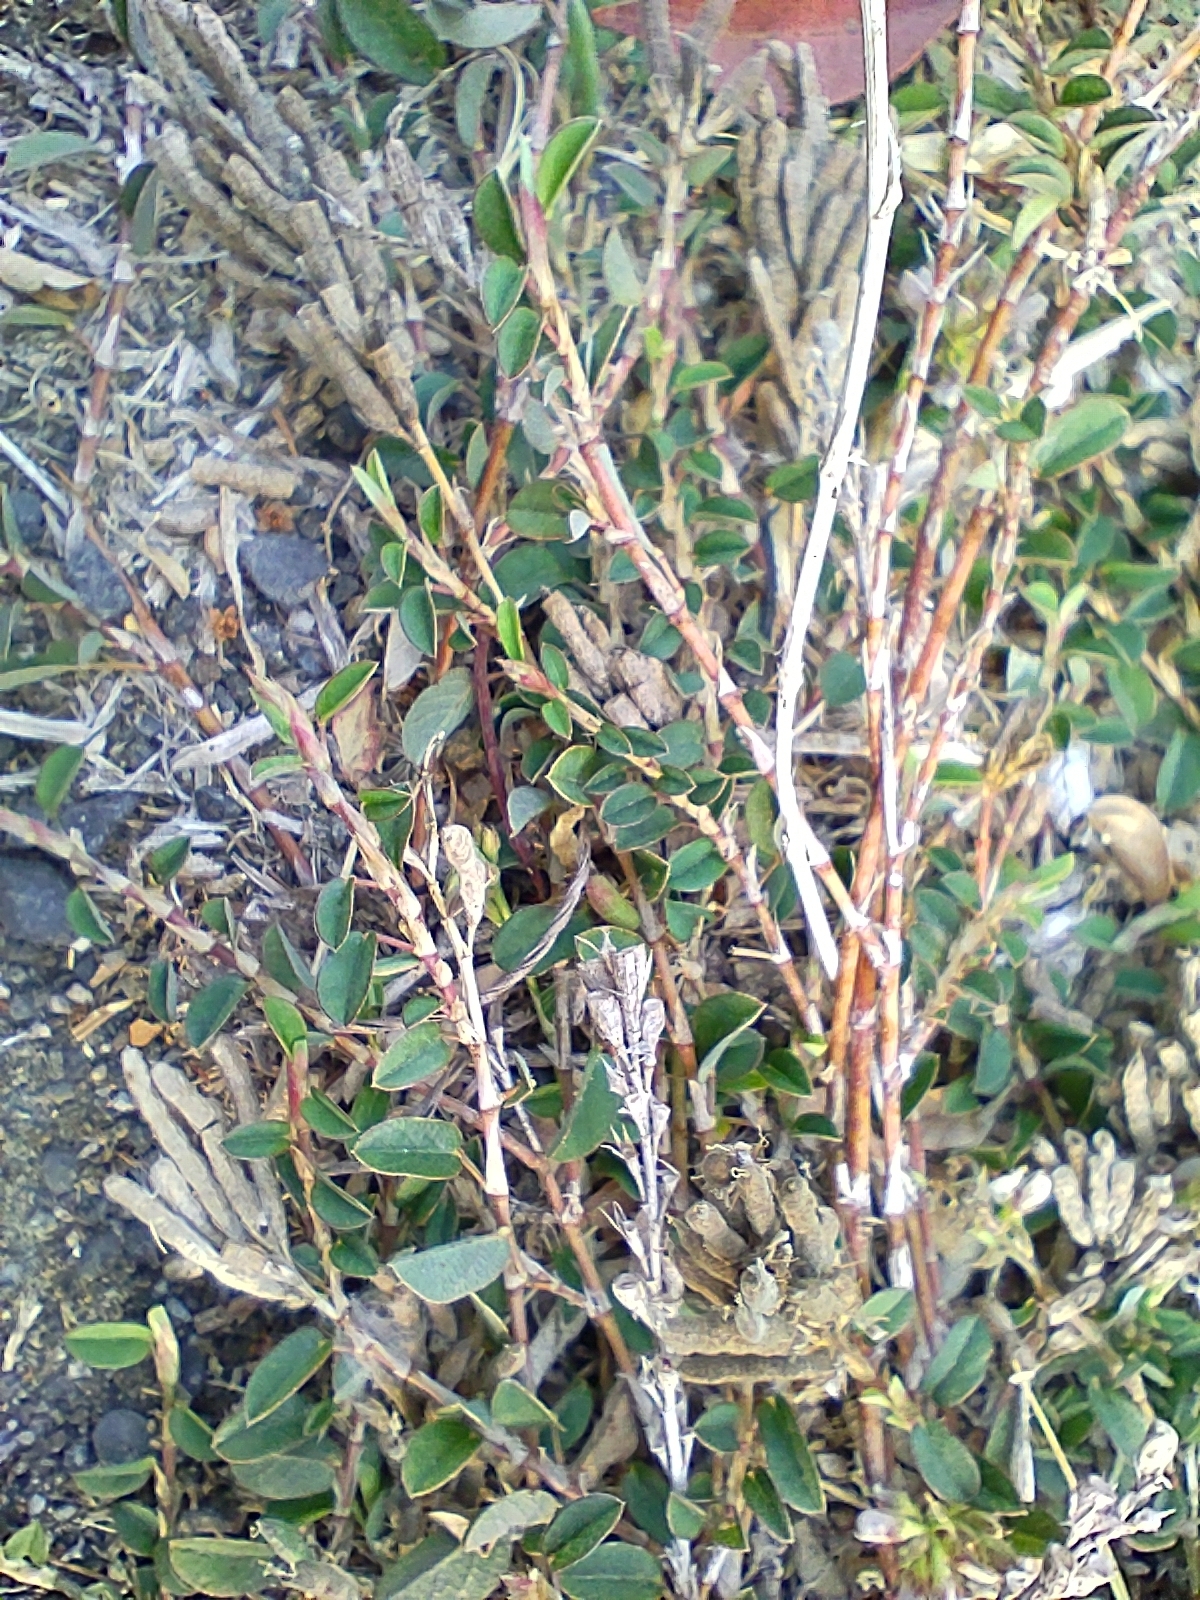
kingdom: Plantae
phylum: Tracheophyta
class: Magnoliopsida
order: Fabales
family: Fabaceae
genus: Alysicarpus
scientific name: Alysicarpus vaginalis
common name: White moneywort
